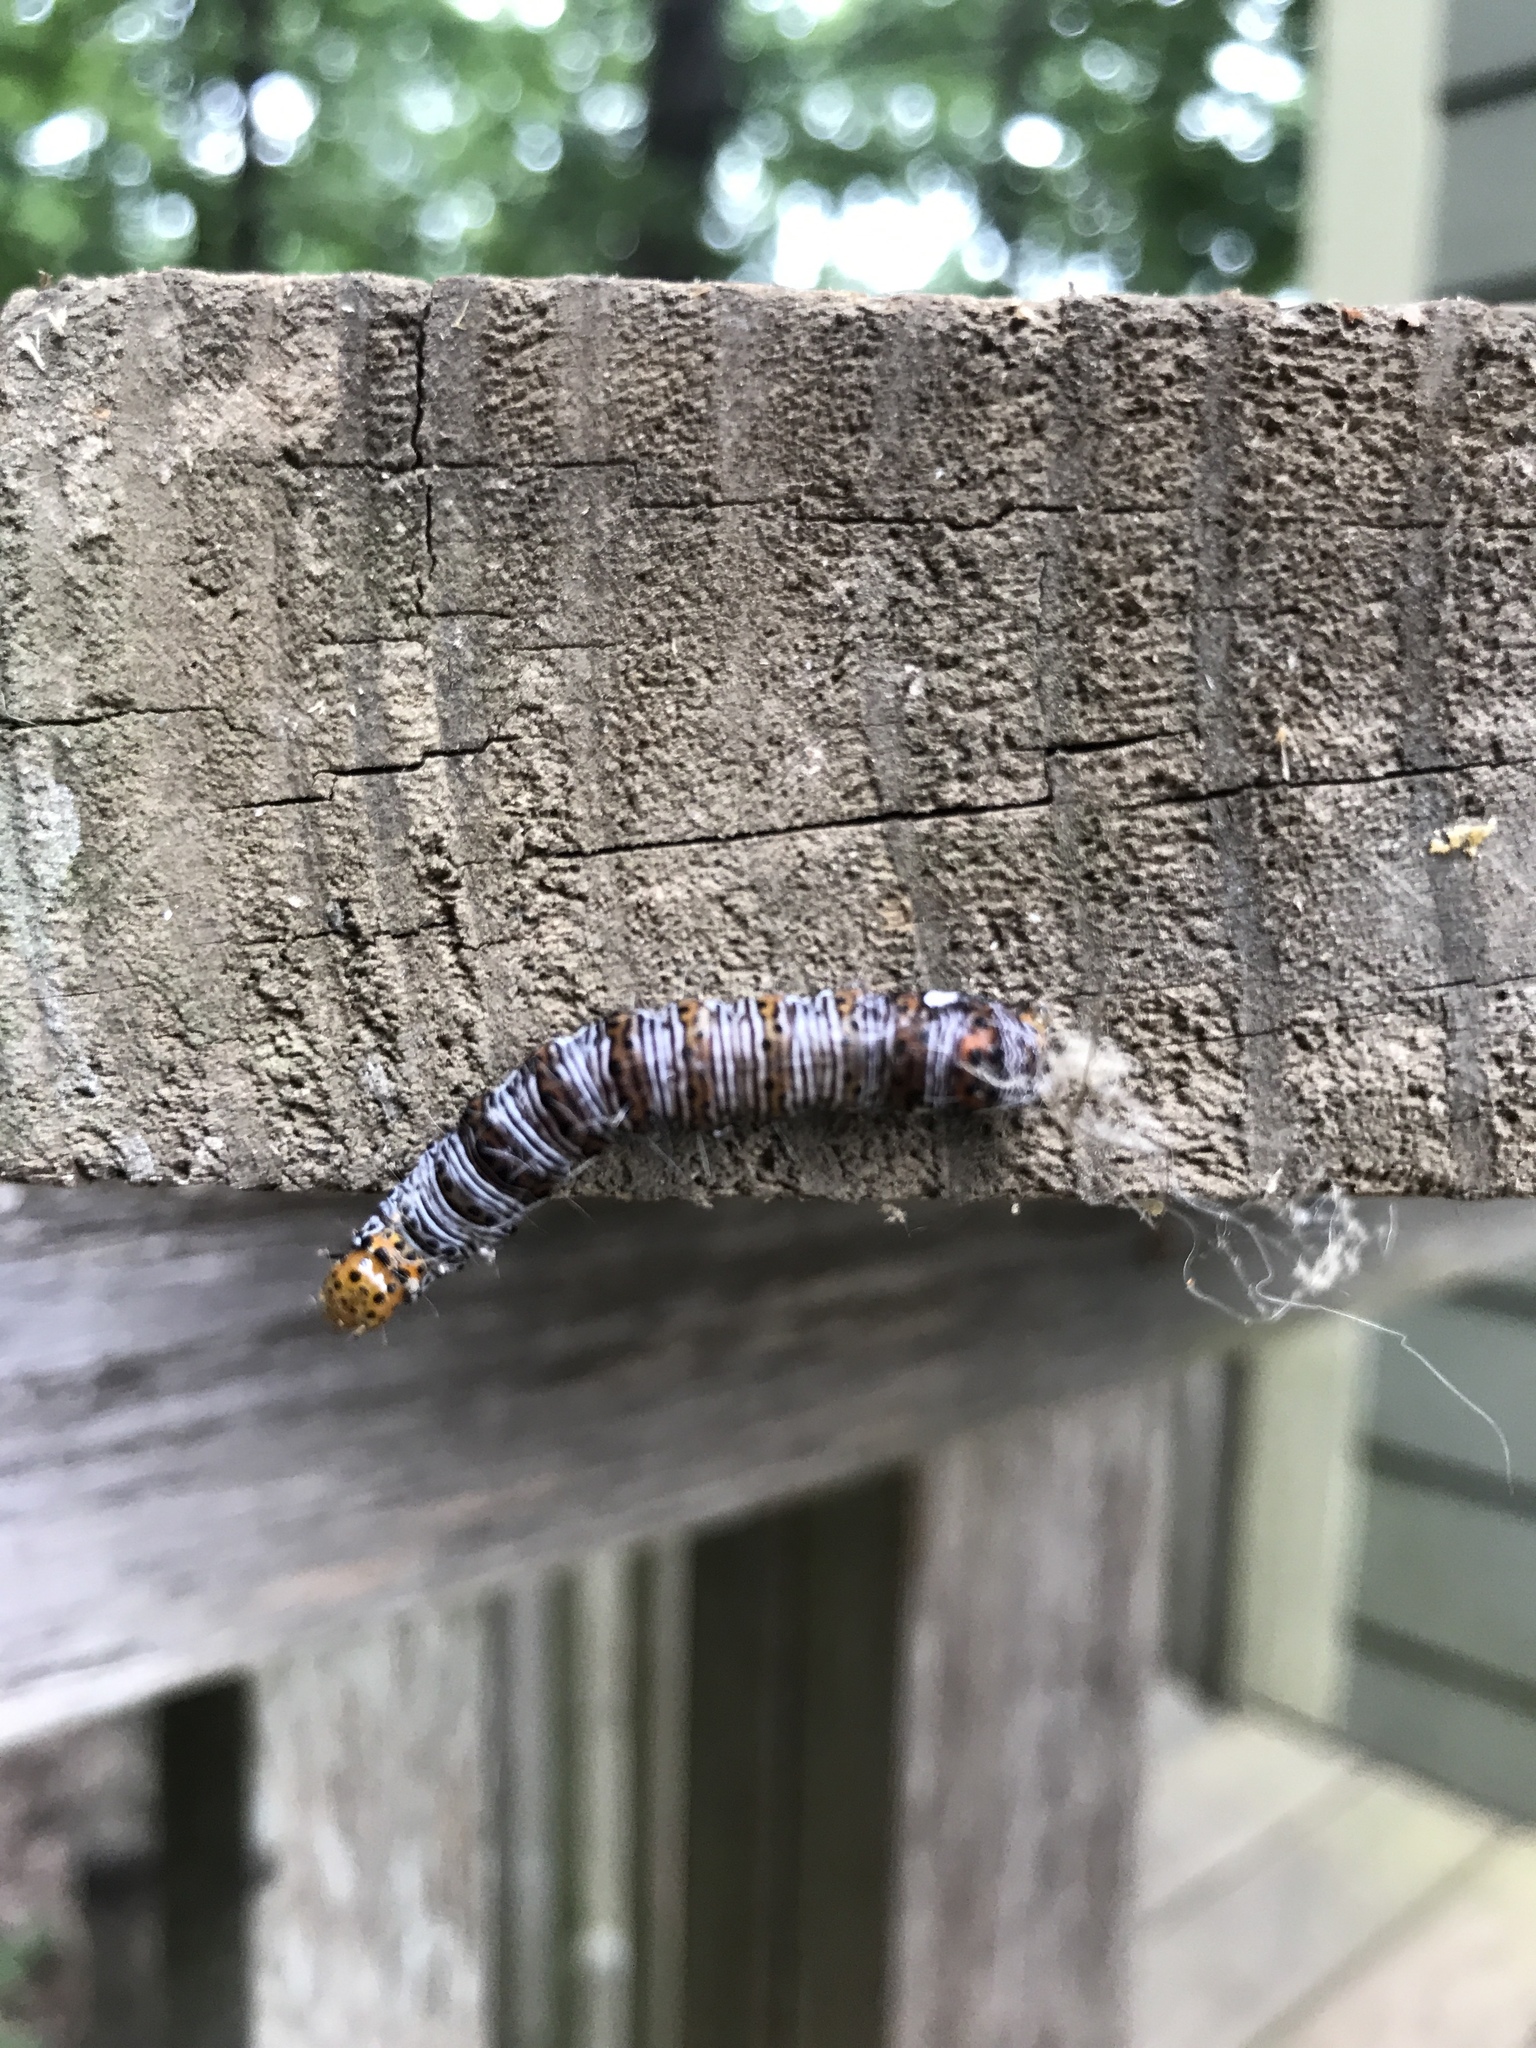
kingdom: Animalia
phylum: Arthropoda
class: Insecta
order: Lepidoptera
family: Noctuidae
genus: Alypia
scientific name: Alypia octomaculata
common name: Eight-spotted forester
